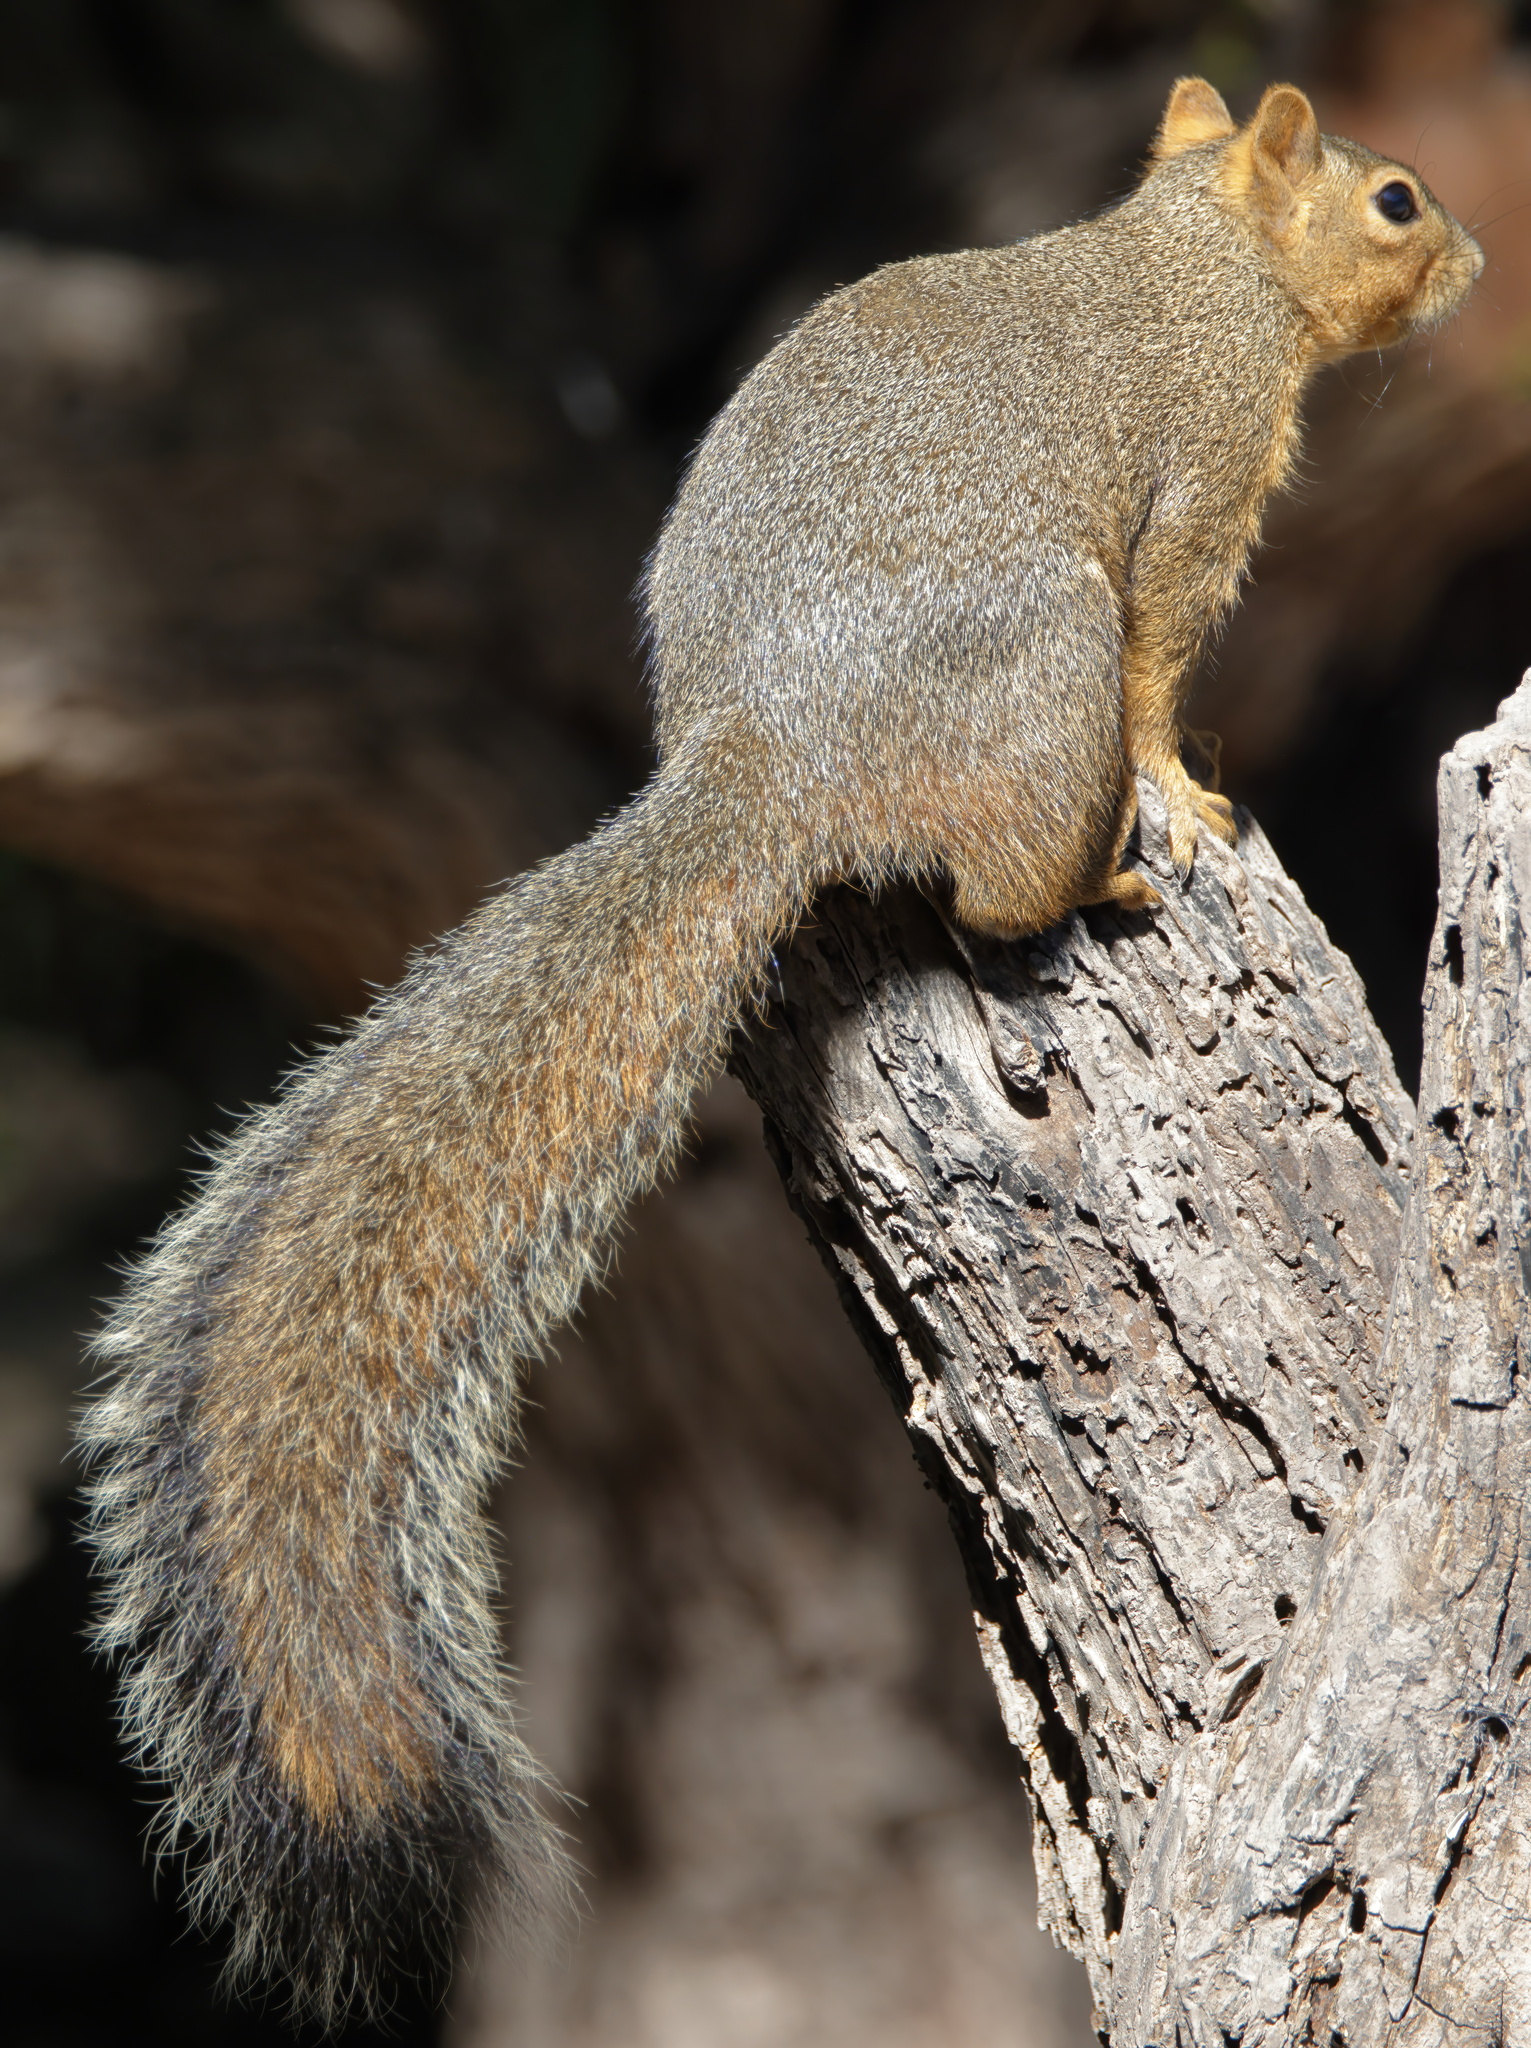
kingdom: Animalia
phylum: Chordata
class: Mammalia
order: Rodentia
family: Sciuridae
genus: Sciurus
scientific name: Sciurus niger
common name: Fox squirrel
